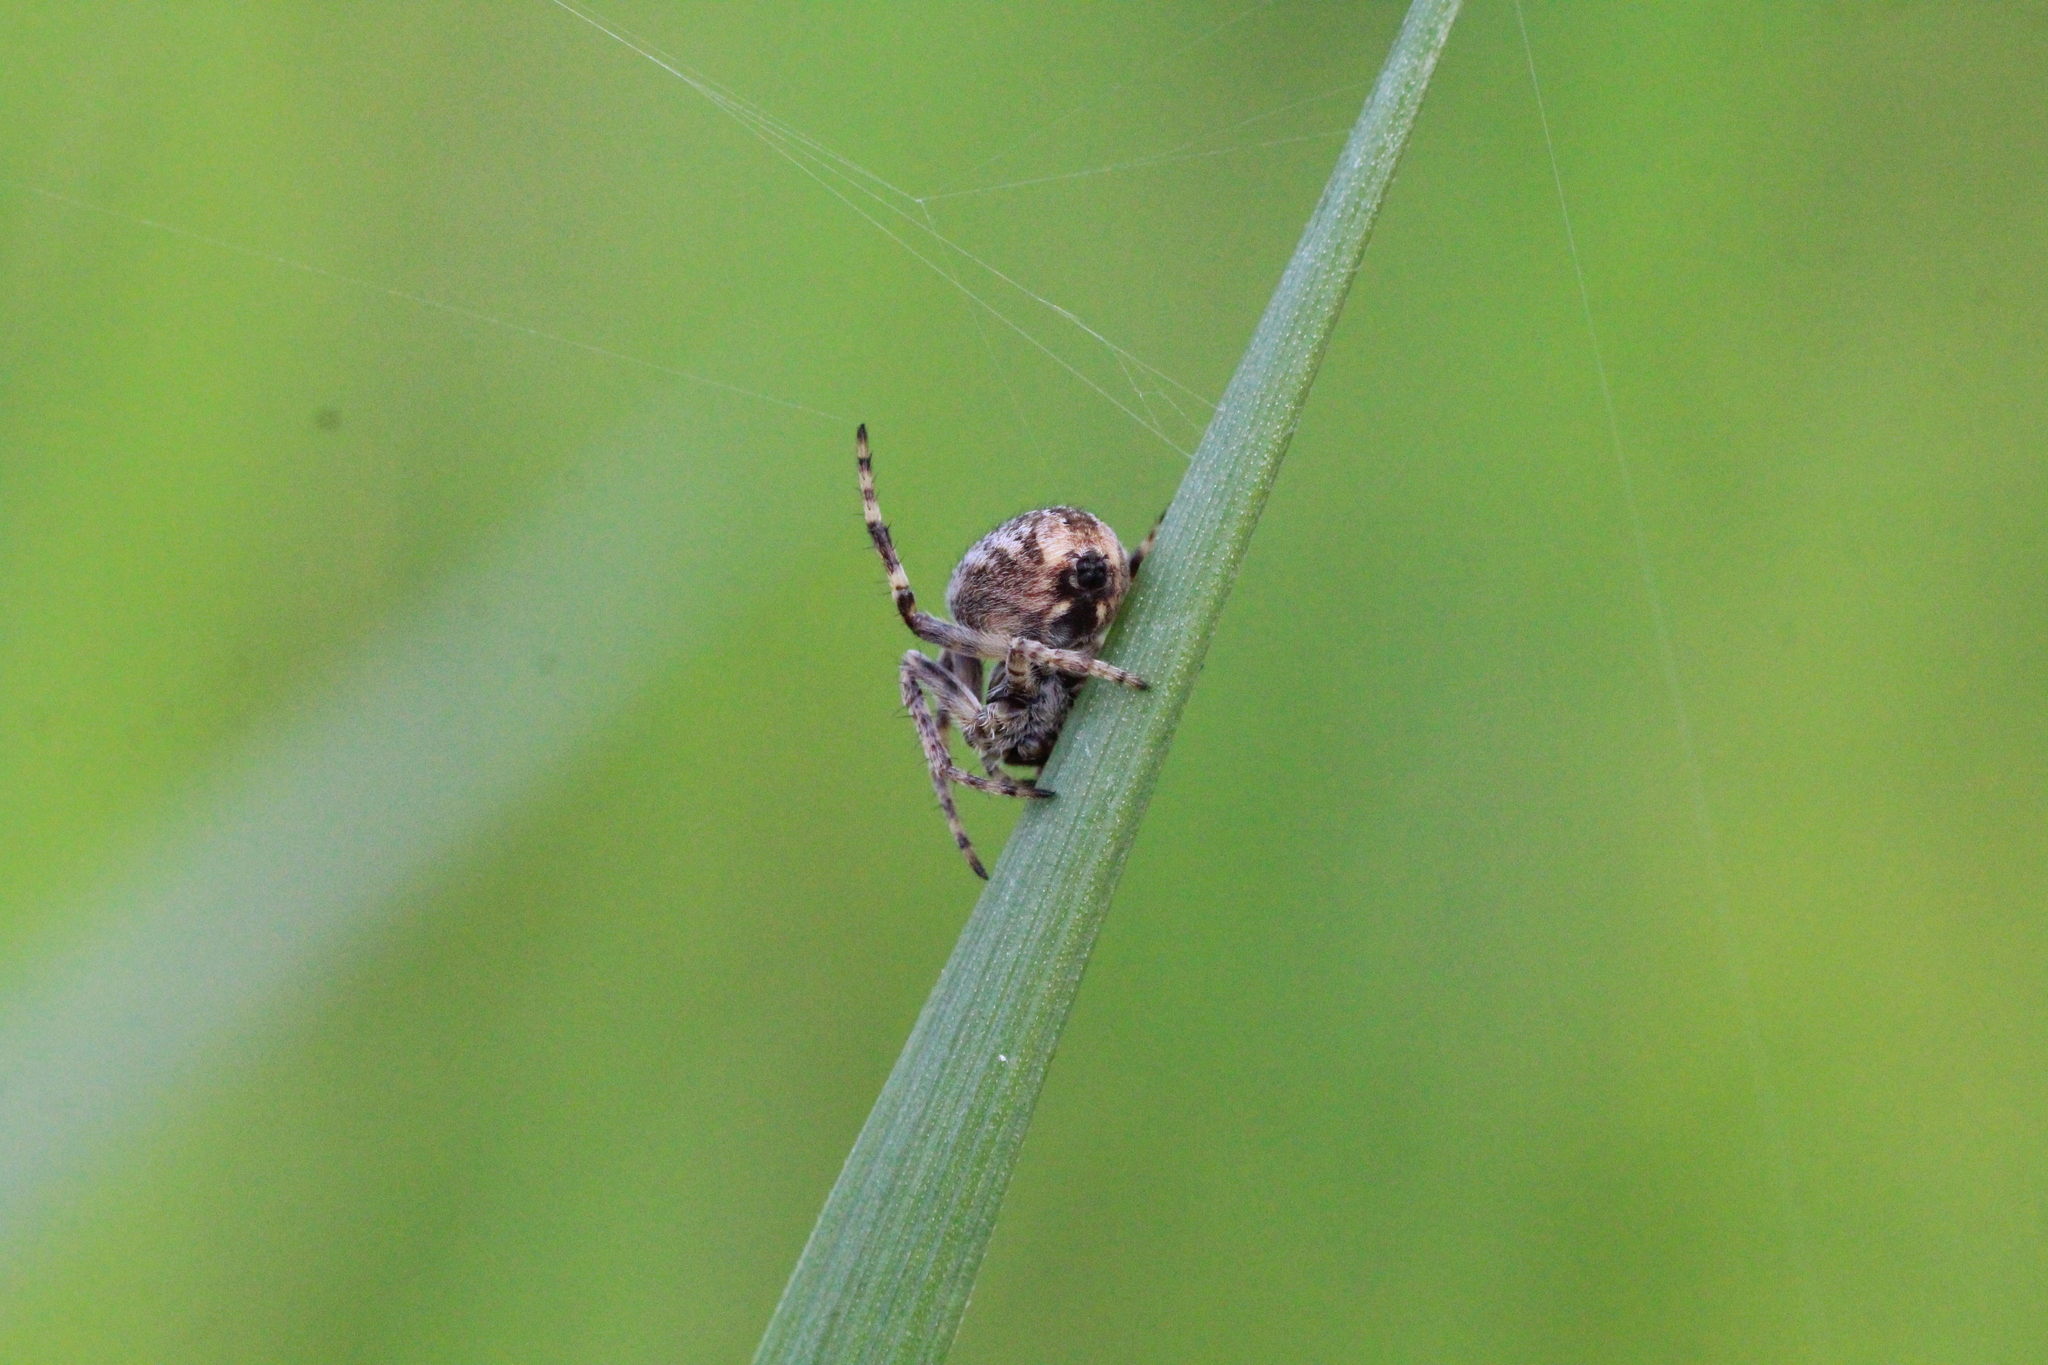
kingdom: Animalia
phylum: Arthropoda
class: Arachnida
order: Araneae
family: Araneidae
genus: Agalenatea
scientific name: Agalenatea redii
